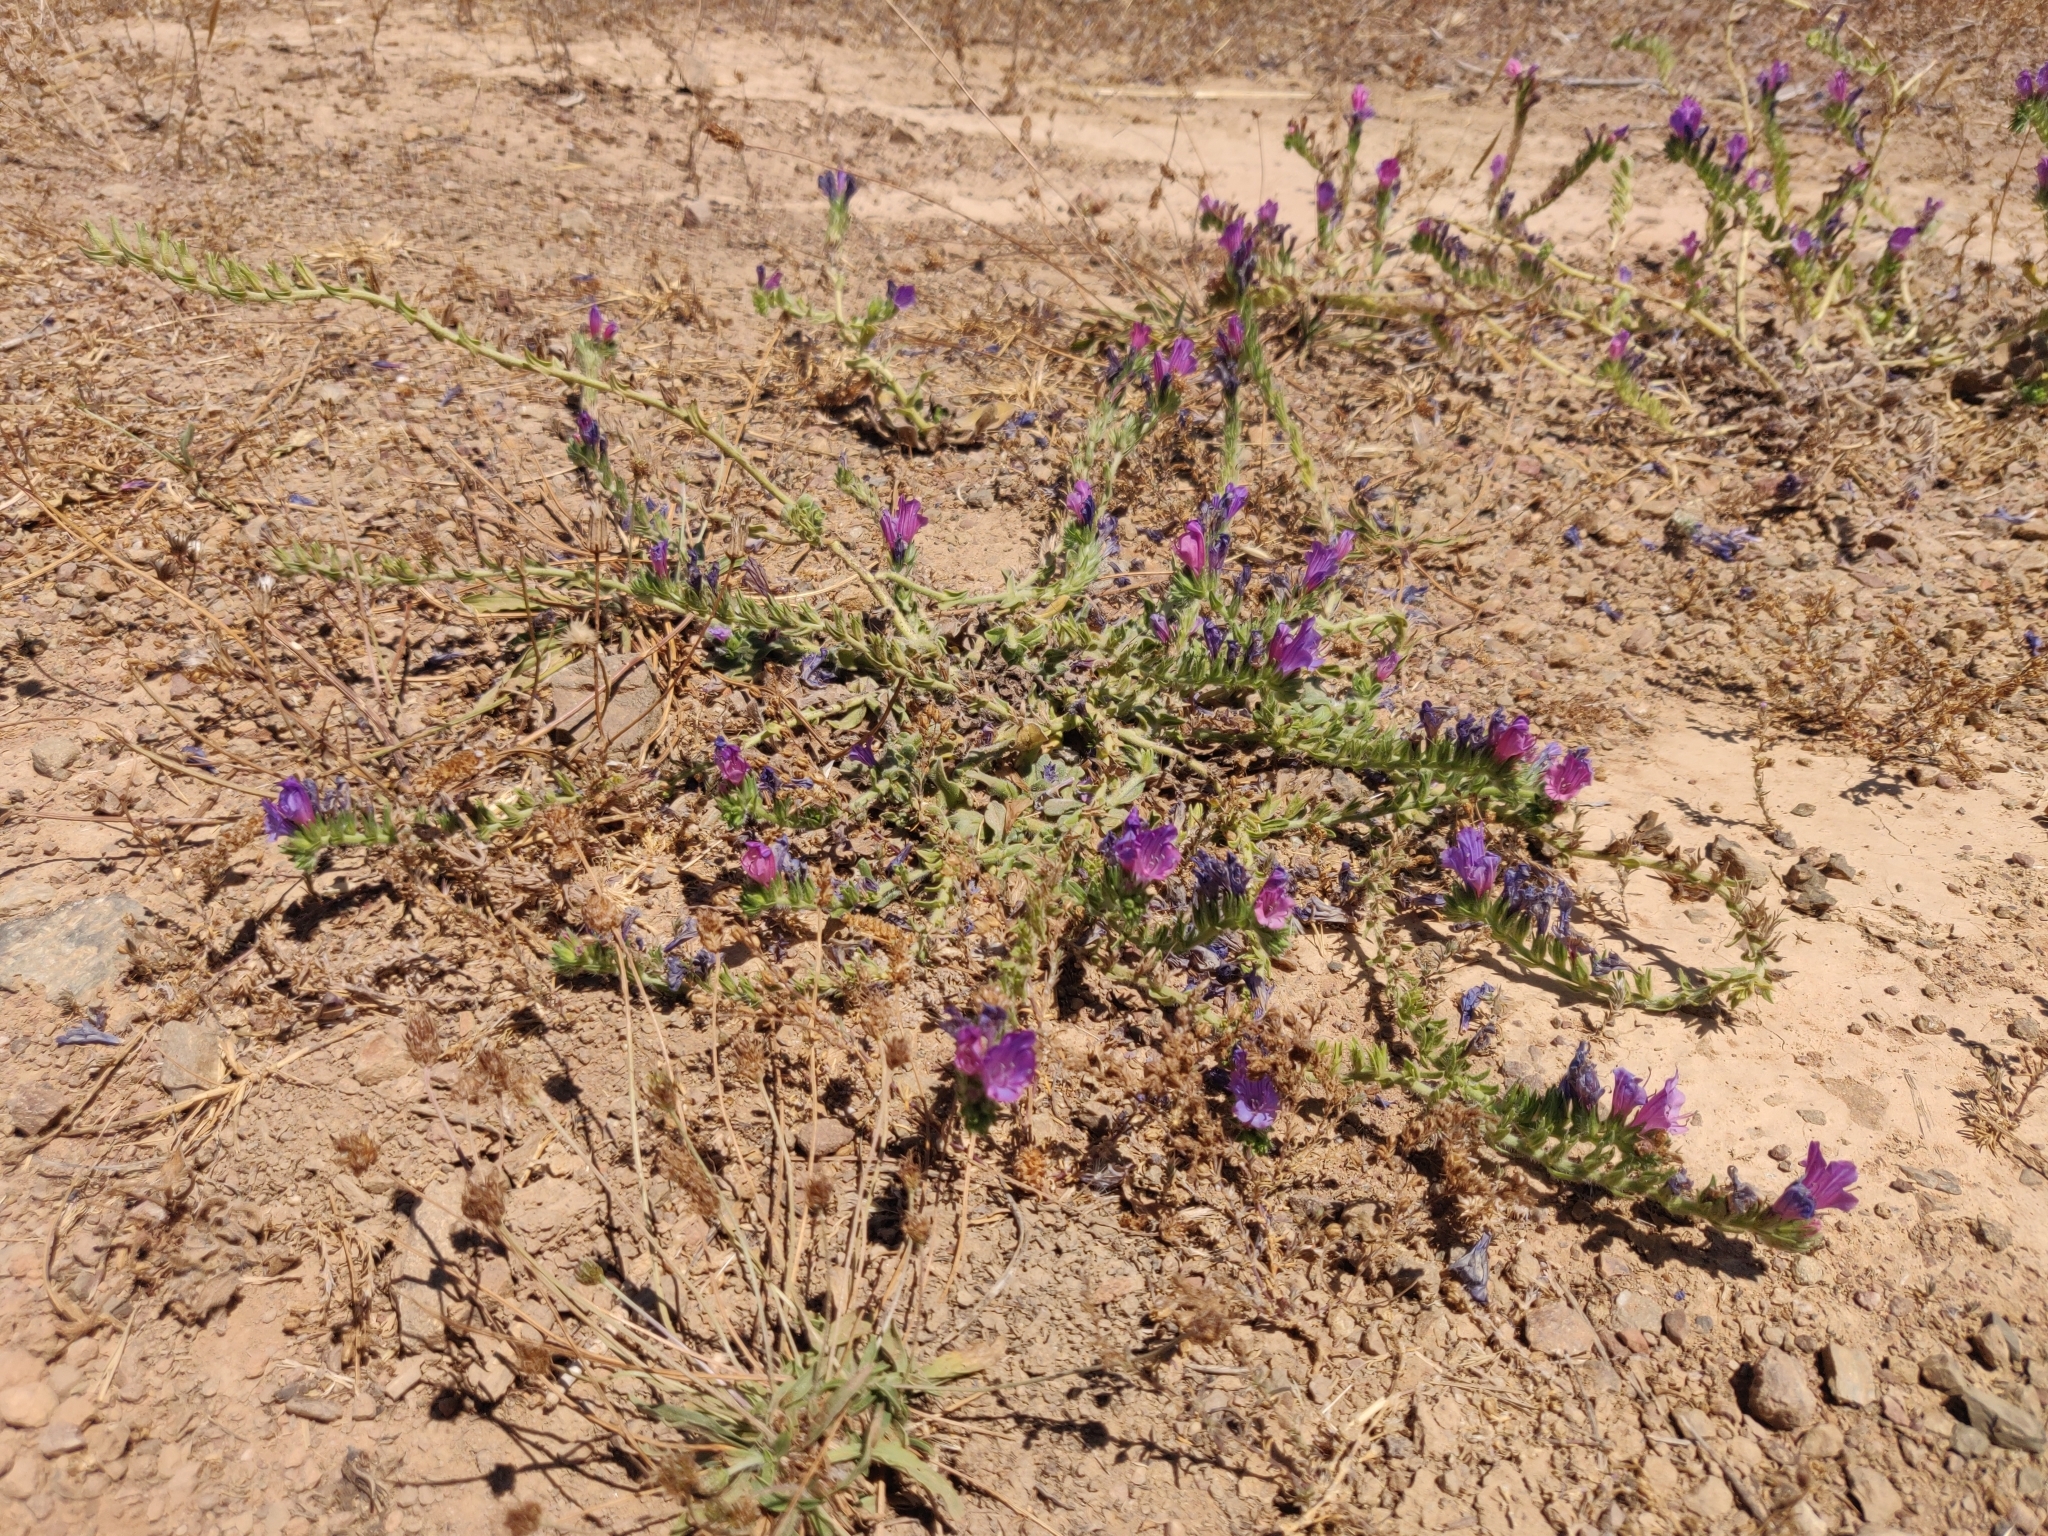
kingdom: Plantae
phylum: Tracheophyta
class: Magnoliopsida
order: Boraginales
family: Boraginaceae
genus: Echium
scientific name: Echium plantagineum
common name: Purple viper's-bugloss
